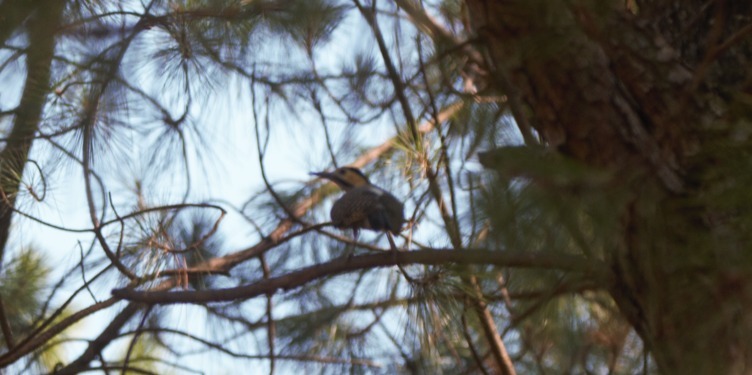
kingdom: Animalia
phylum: Chordata
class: Aves
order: Piciformes
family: Picidae
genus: Colaptes
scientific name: Colaptes campestris
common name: Campo flicker
